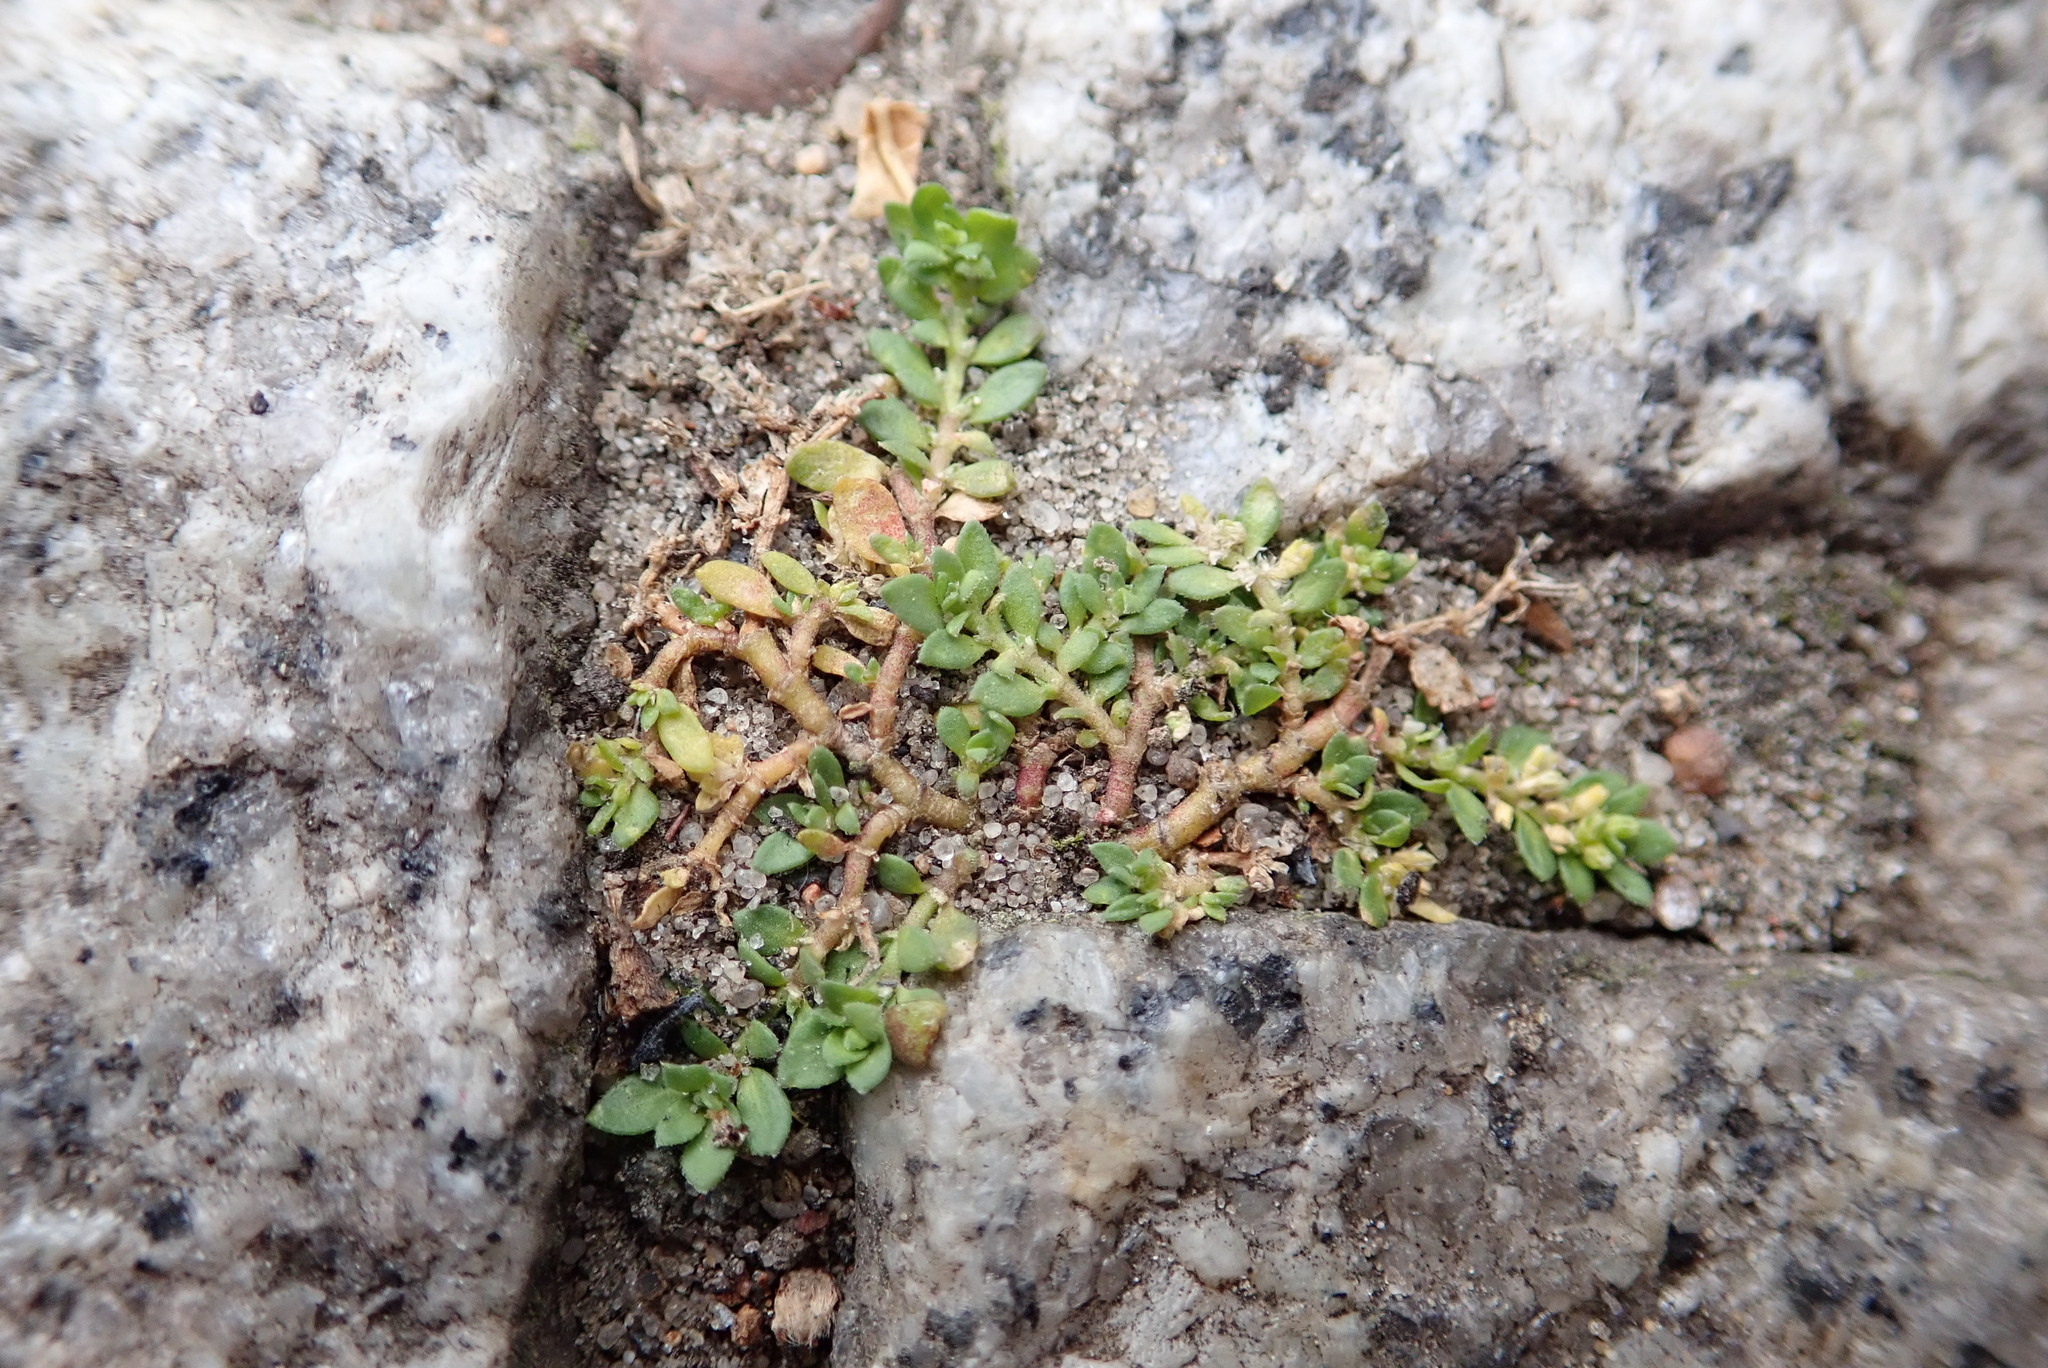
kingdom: Plantae
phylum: Tracheophyta
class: Magnoliopsida
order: Caryophyllales
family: Caryophyllaceae
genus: Herniaria
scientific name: Herniaria glabra
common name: Smooth rupturewort
